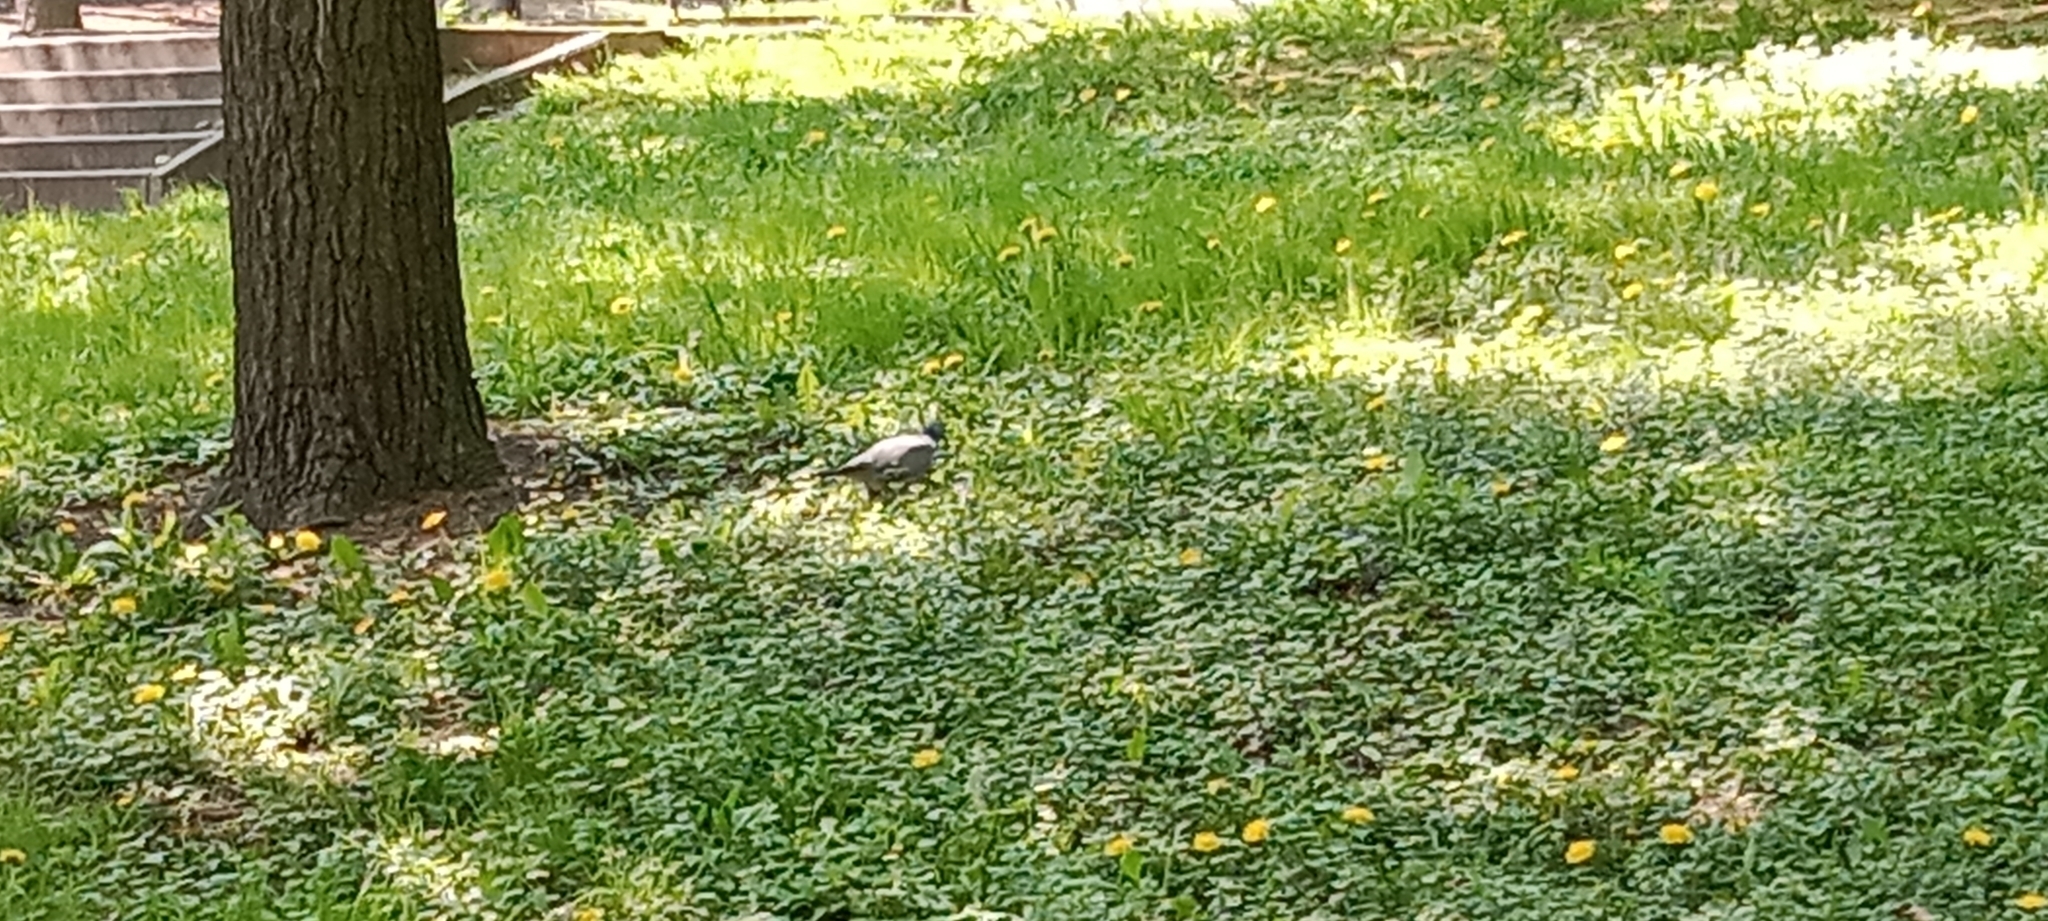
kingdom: Animalia
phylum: Chordata
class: Aves
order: Columbiformes
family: Columbidae
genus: Columba
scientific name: Columba palumbus
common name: Common wood pigeon
